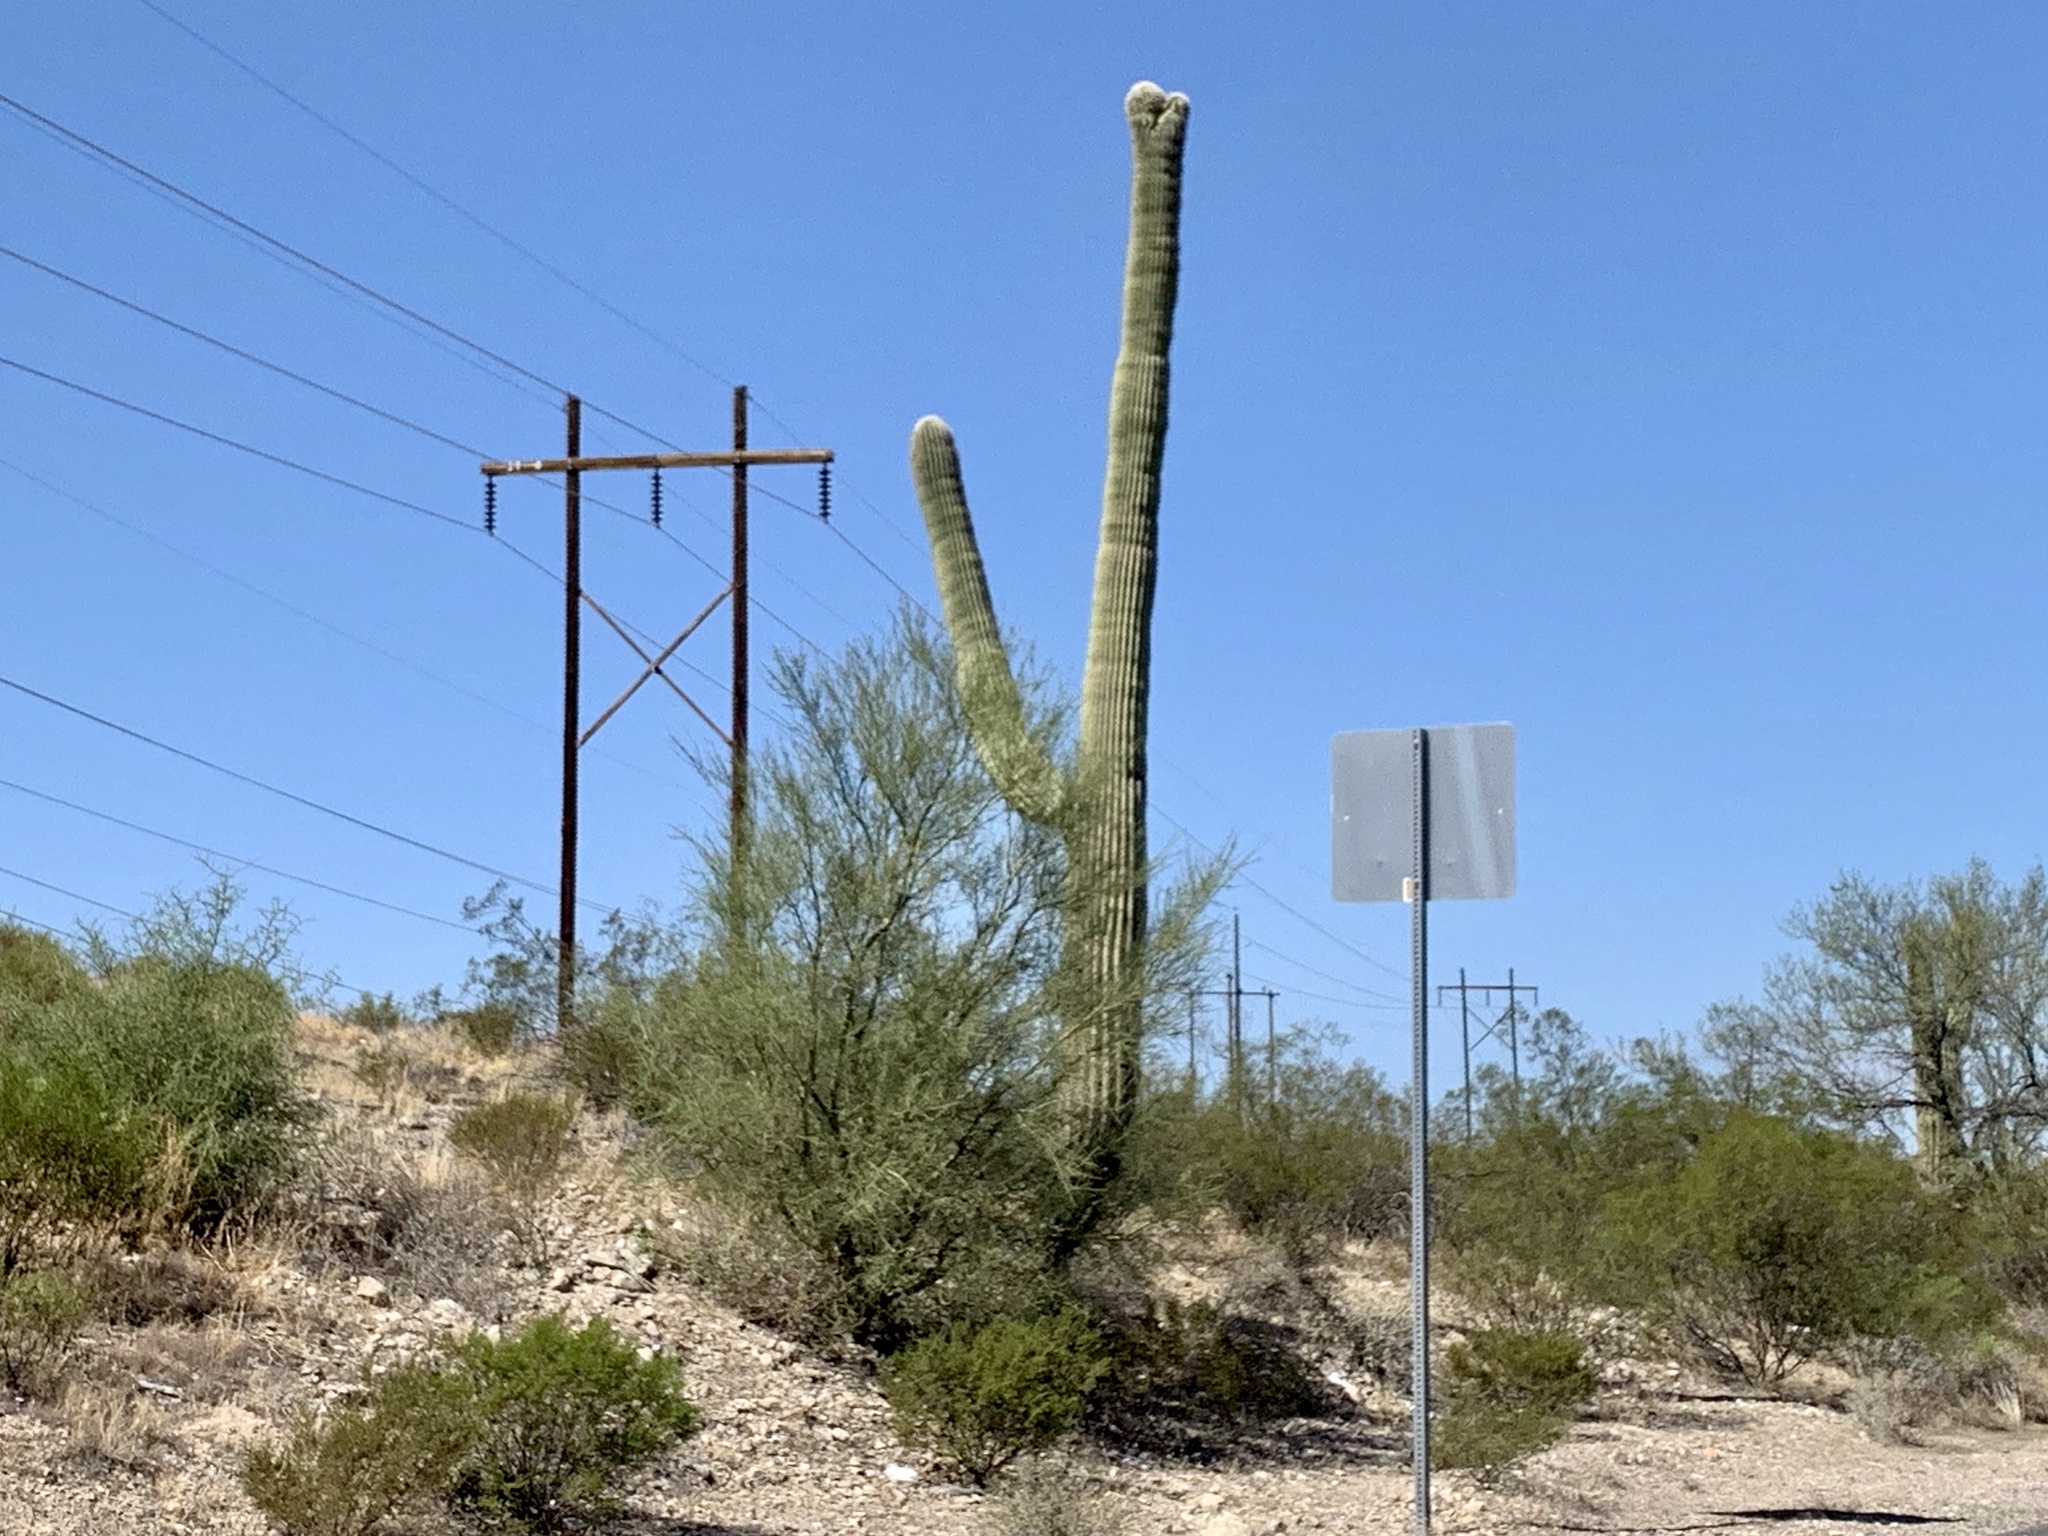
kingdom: Plantae
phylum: Tracheophyta
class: Magnoliopsida
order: Caryophyllales
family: Cactaceae
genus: Carnegiea
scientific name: Carnegiea gigantea
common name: Saguaro
